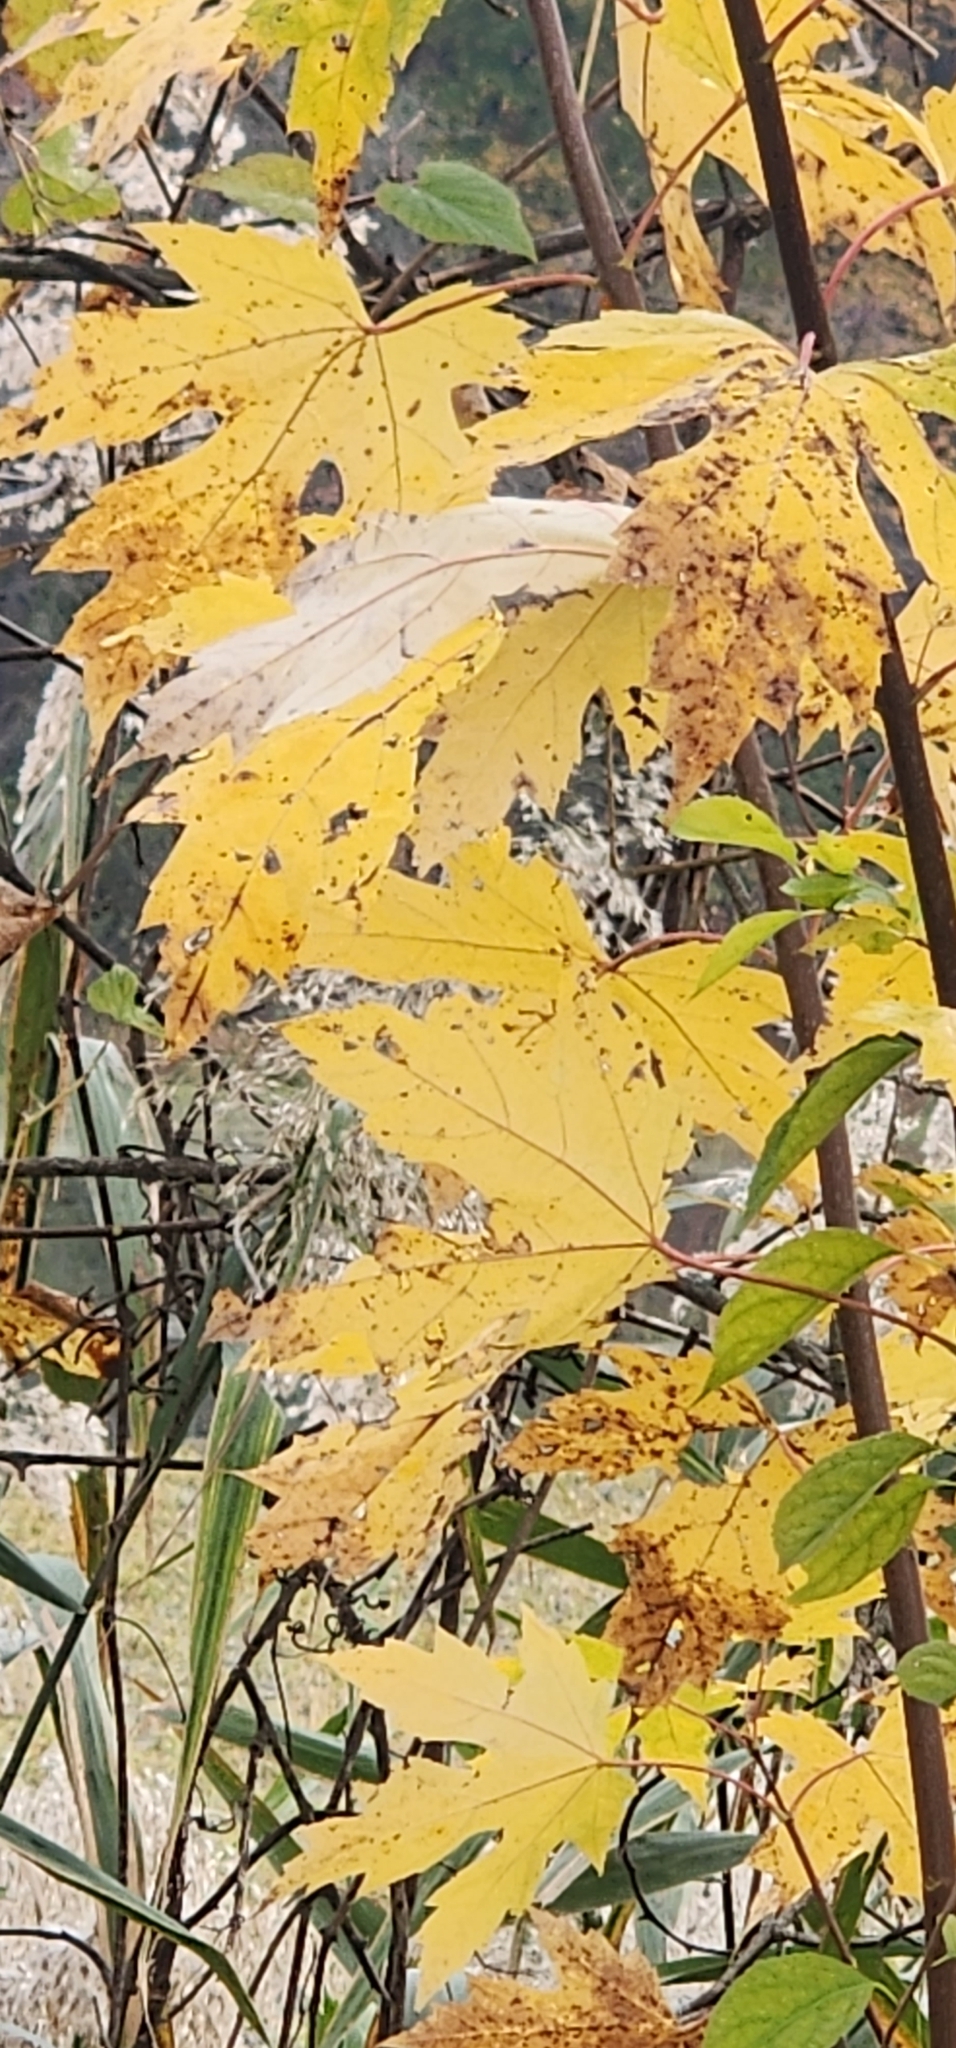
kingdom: Plantae
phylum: Tracheophyta
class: Magnoliopsida
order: Sapindales
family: Sapindaceae
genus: Acer
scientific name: Acer saccharinum
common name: Silver maple
